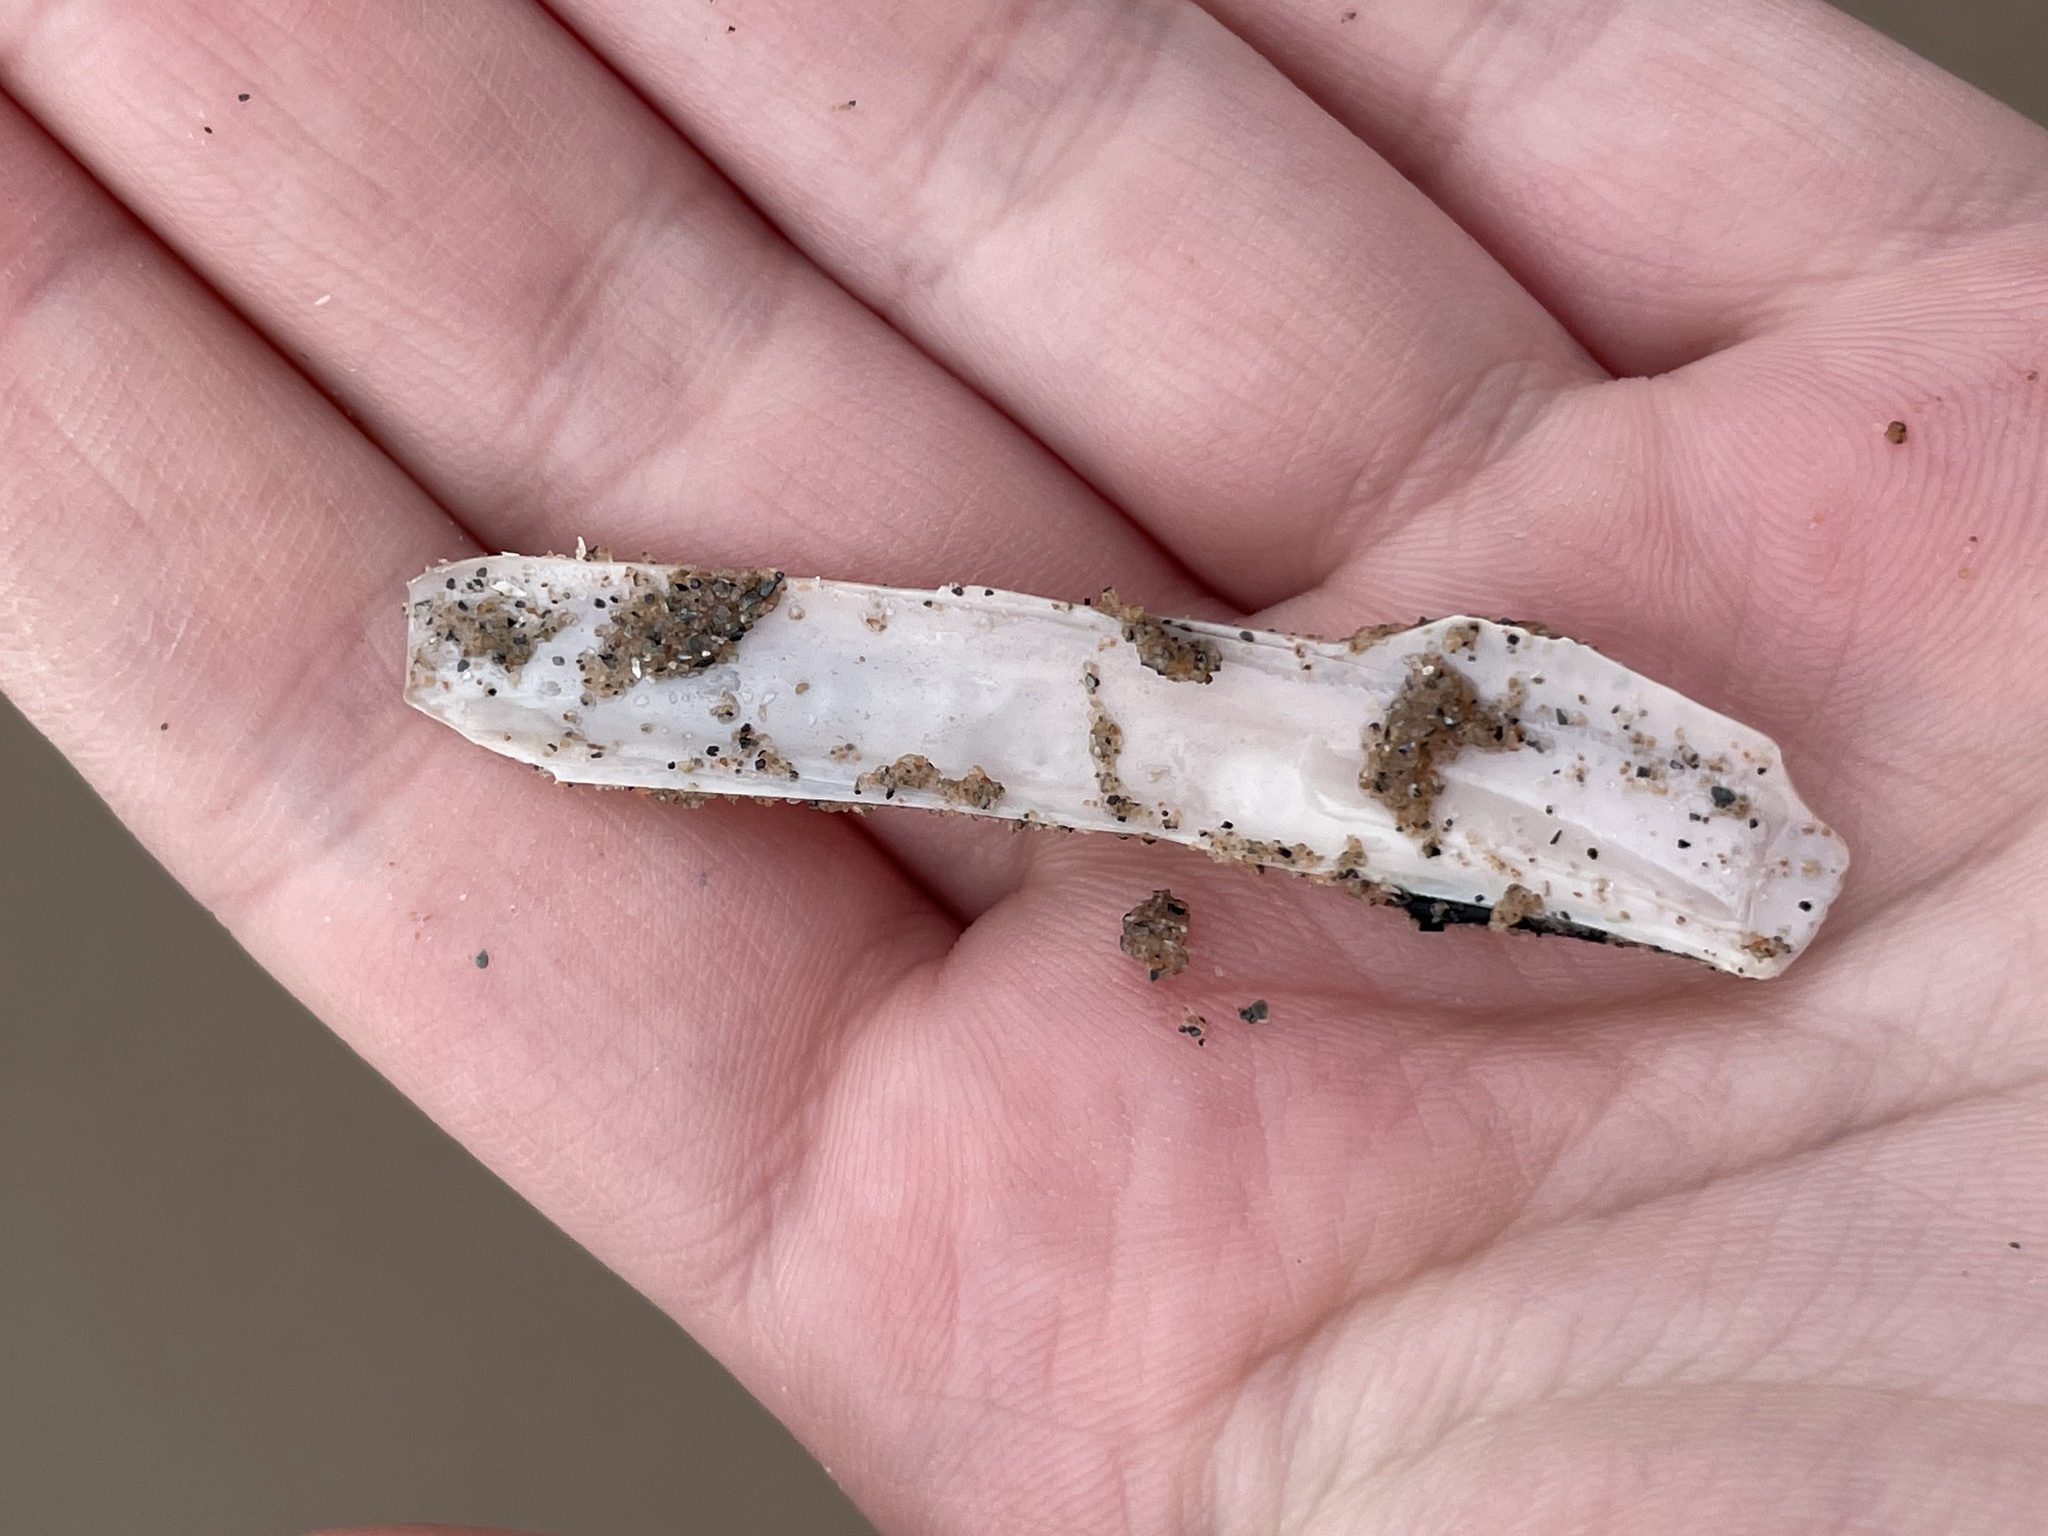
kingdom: Animalia
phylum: Mollusca
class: Bivalvia
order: Adapedonta
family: Pharidae
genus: Ensis
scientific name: Ensis leei
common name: American jack knife clam
